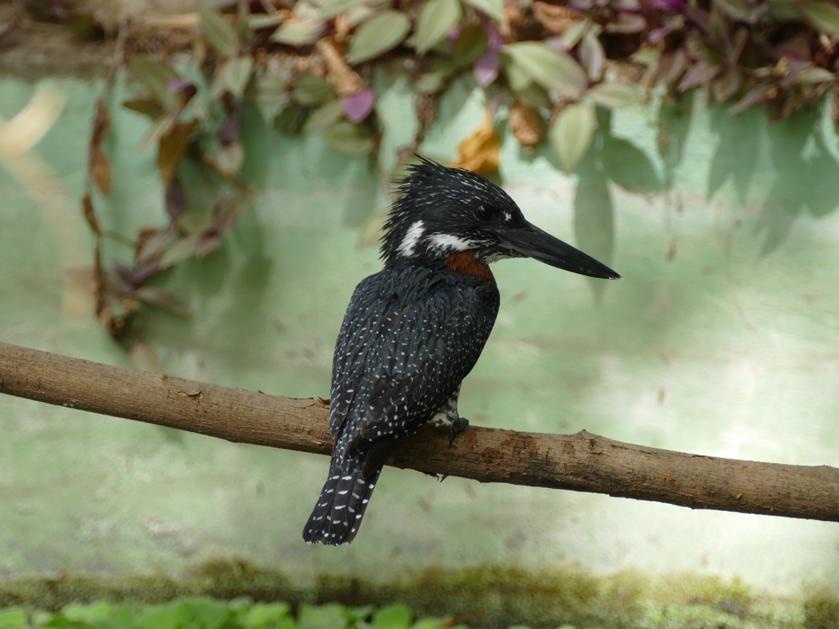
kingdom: Animalia
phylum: Chordata
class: Aves
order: Coraciiformes
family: Alcedinidae
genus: Megaceryle
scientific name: Megaceryle maxima
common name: Giant kingfisher
